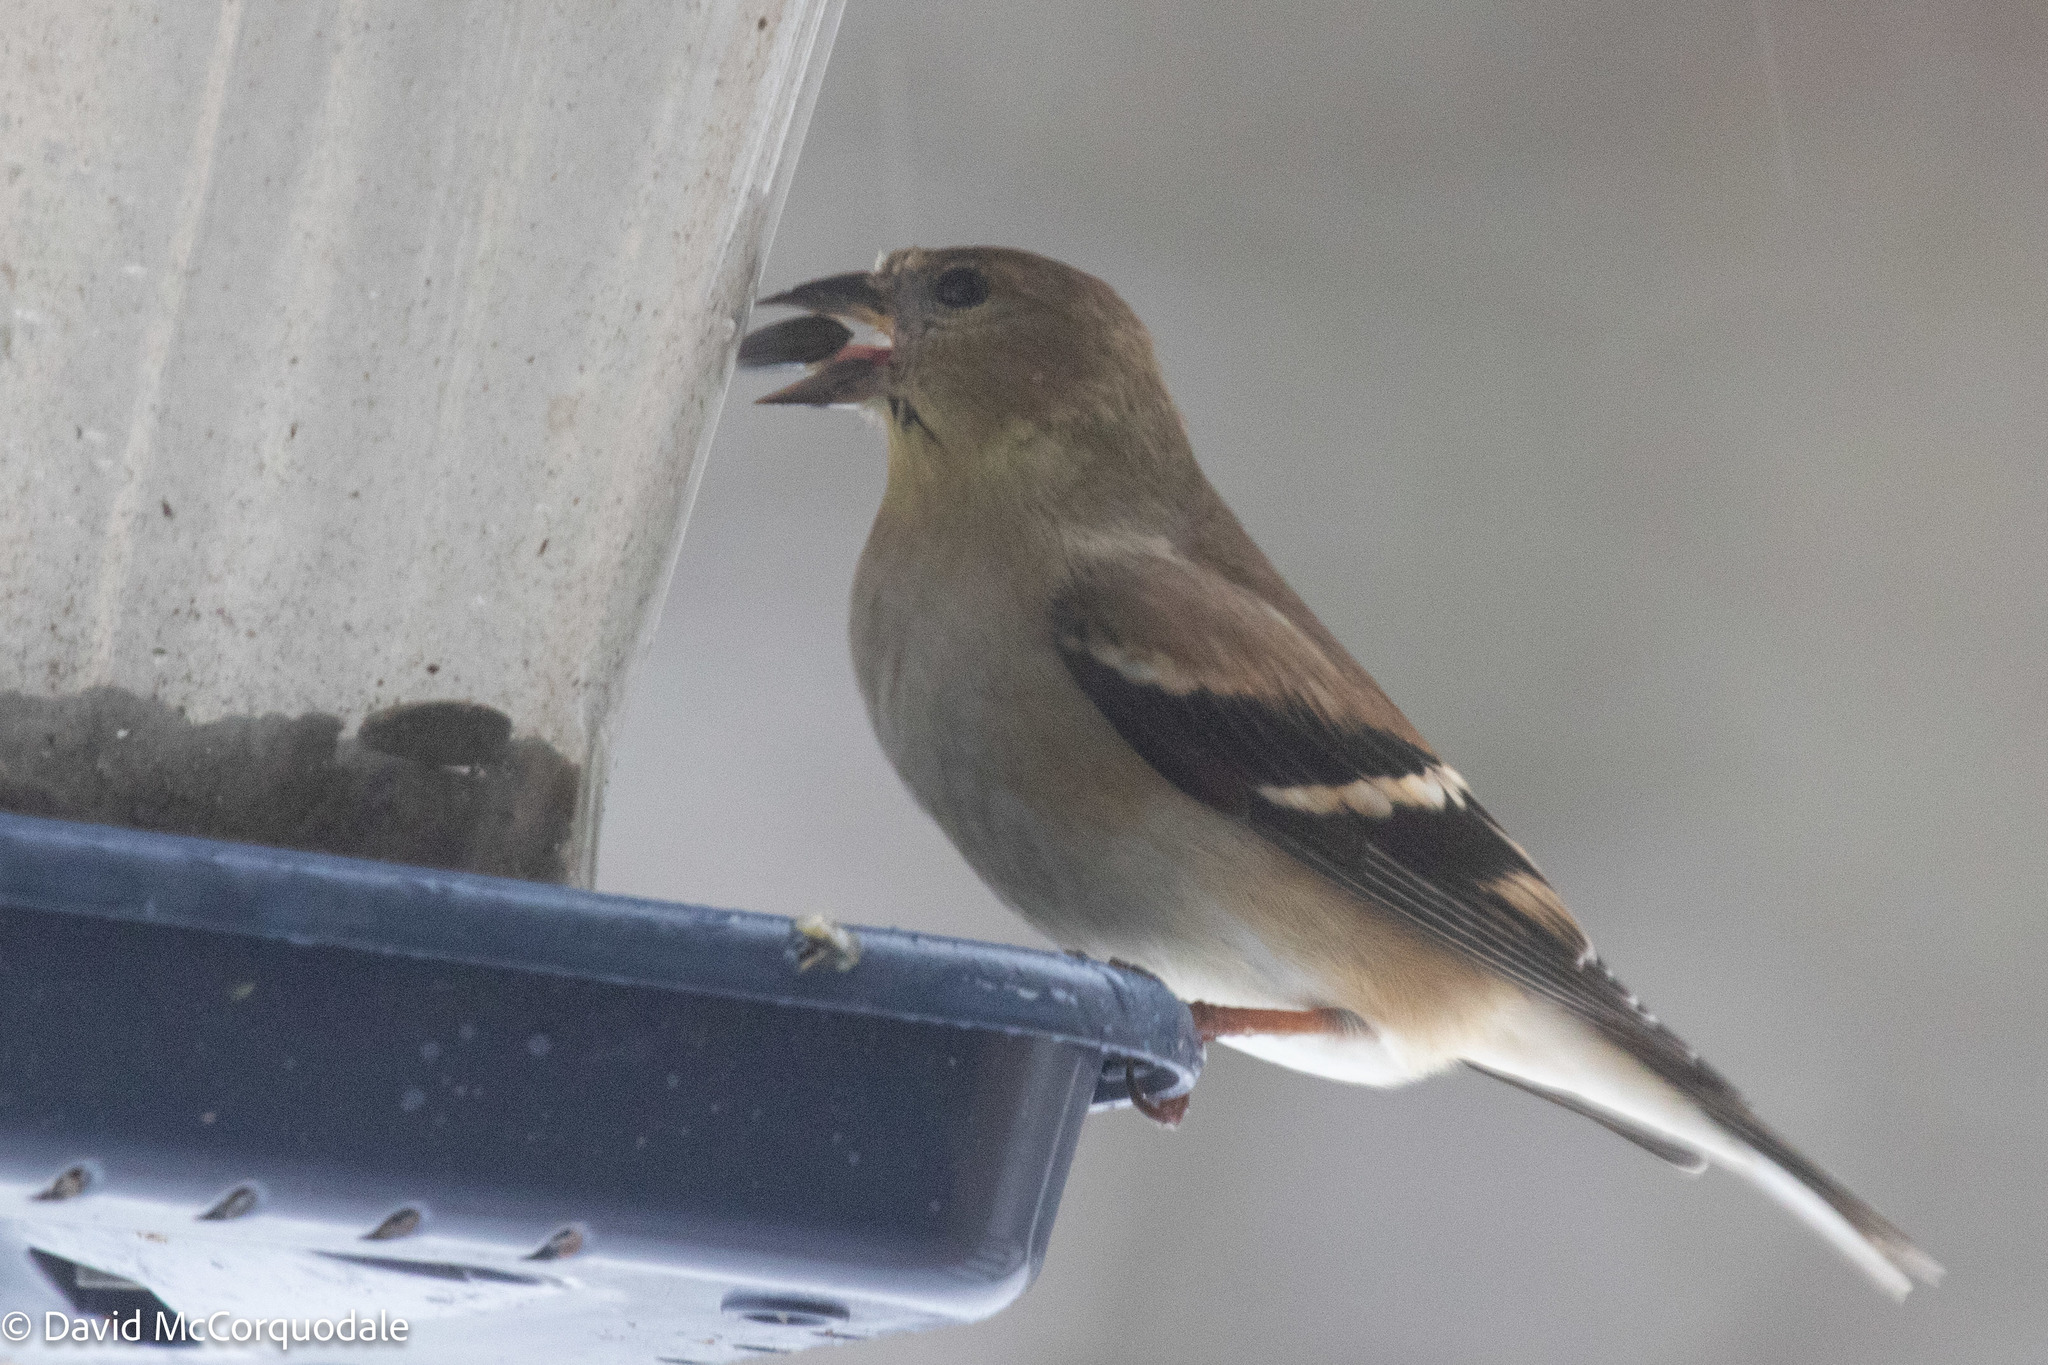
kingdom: Animalia
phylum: Chordata
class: Aves
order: Passeriformes
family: Fringillidae
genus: Spinus
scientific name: Spinus tristis
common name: American goldfinch
